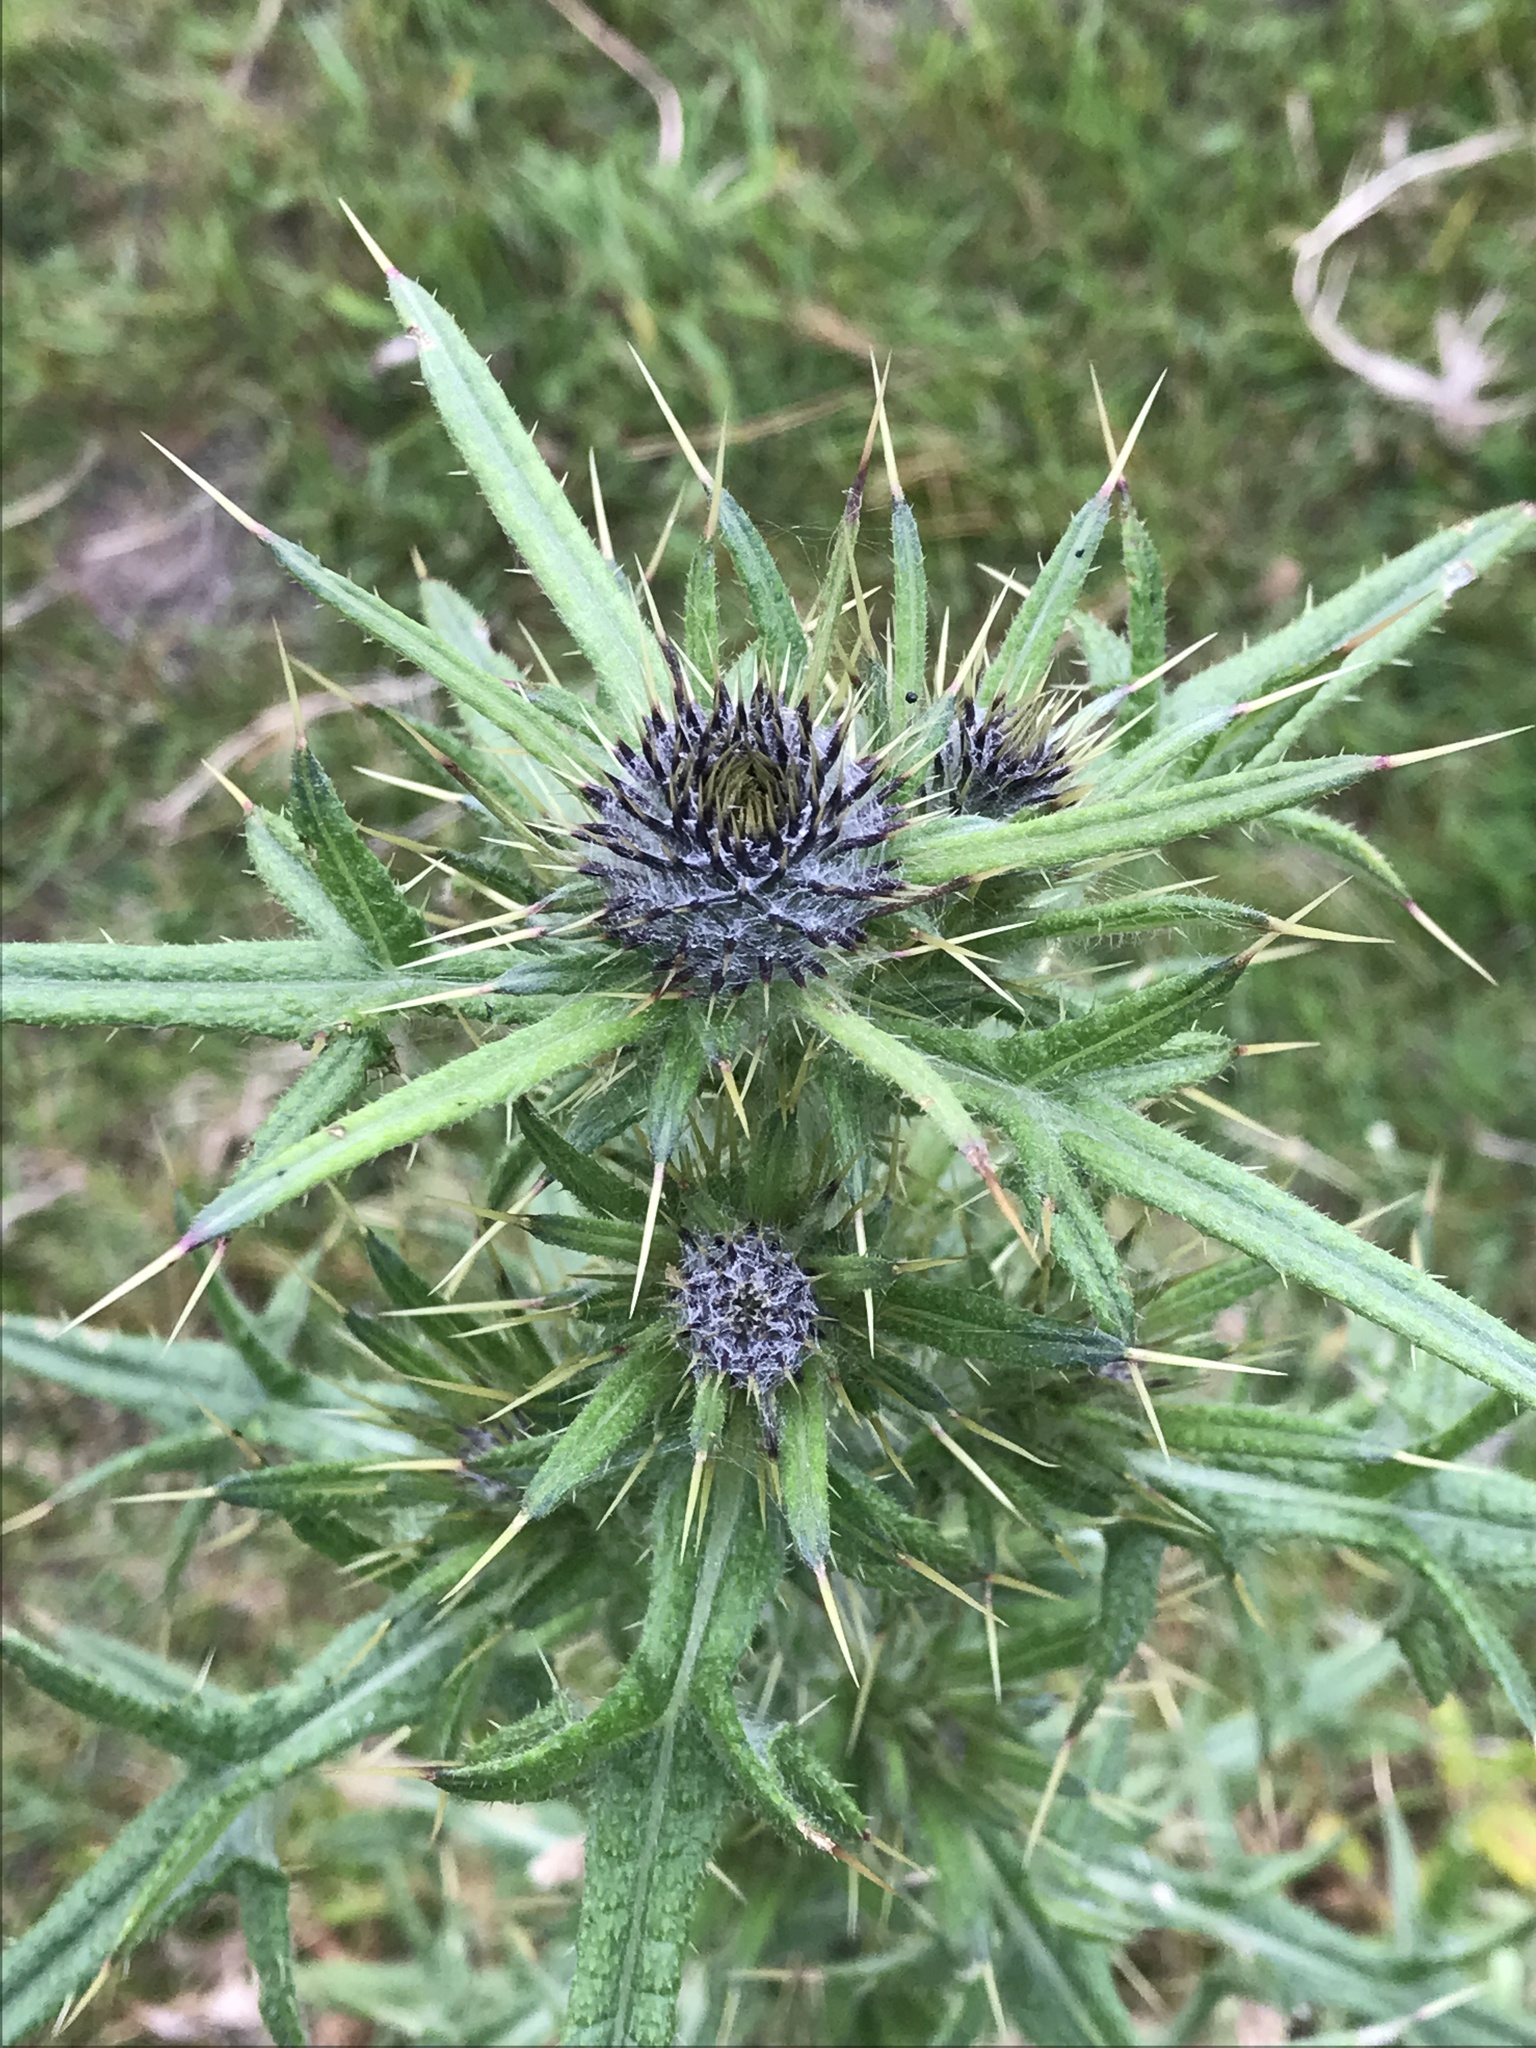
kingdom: Plantae
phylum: Tracheophyta
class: Magnoliopsida
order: Asterales
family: Asteraceae
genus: Cirsium
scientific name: Cirsium vulgare
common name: Bull thistle
